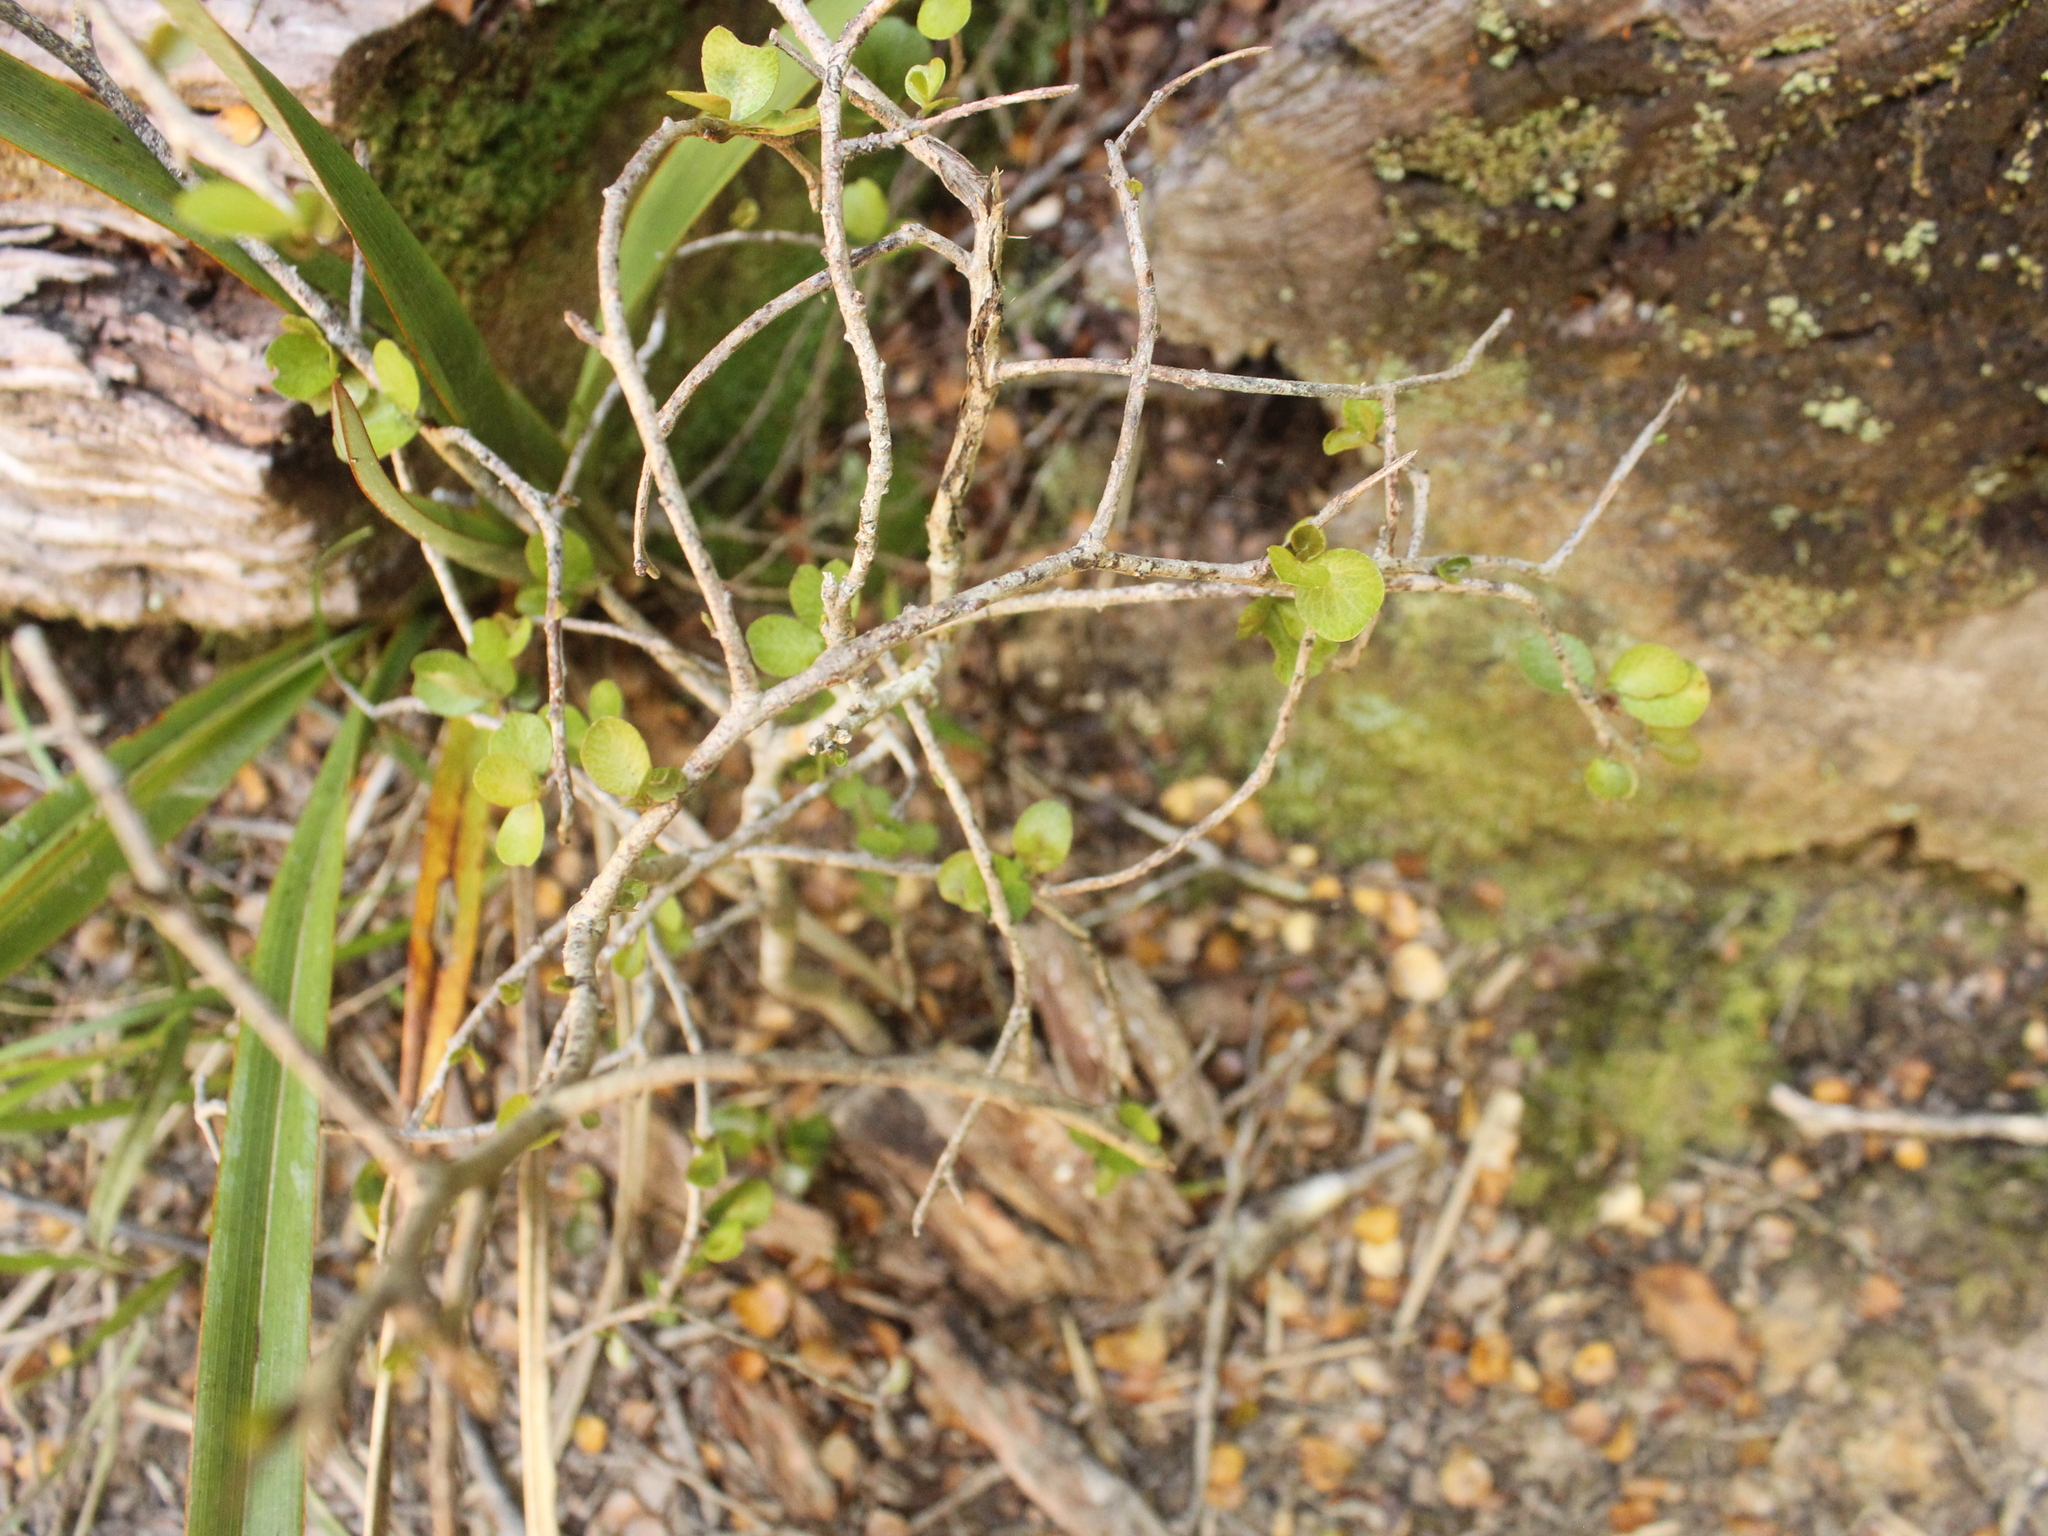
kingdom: Plantae
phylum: Tracheophyta
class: Magnoliopsida
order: Ericales
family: Primulaceae
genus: Myrsine
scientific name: Myrsine divaricata
